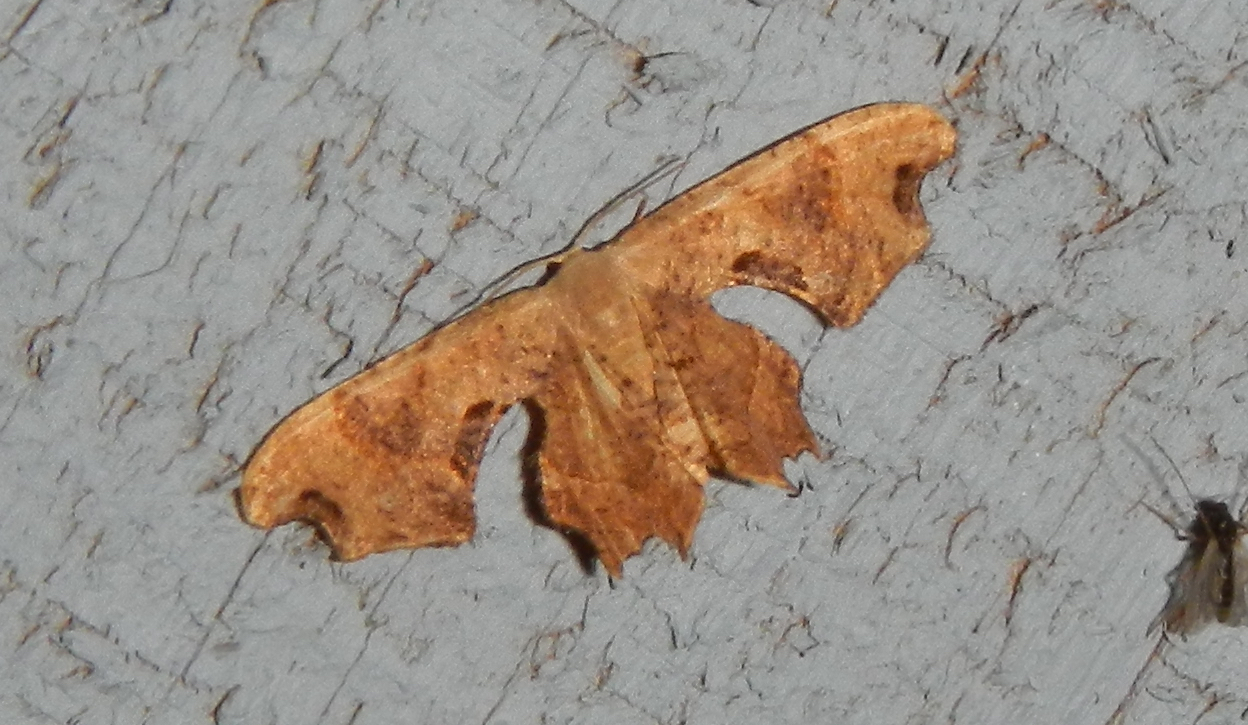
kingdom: Animalia
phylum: Arthropoda
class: Insecta
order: Lepidoptera
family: Uraniidae
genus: Epiplema
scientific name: Epiplema Calledapteryx dryopterata
